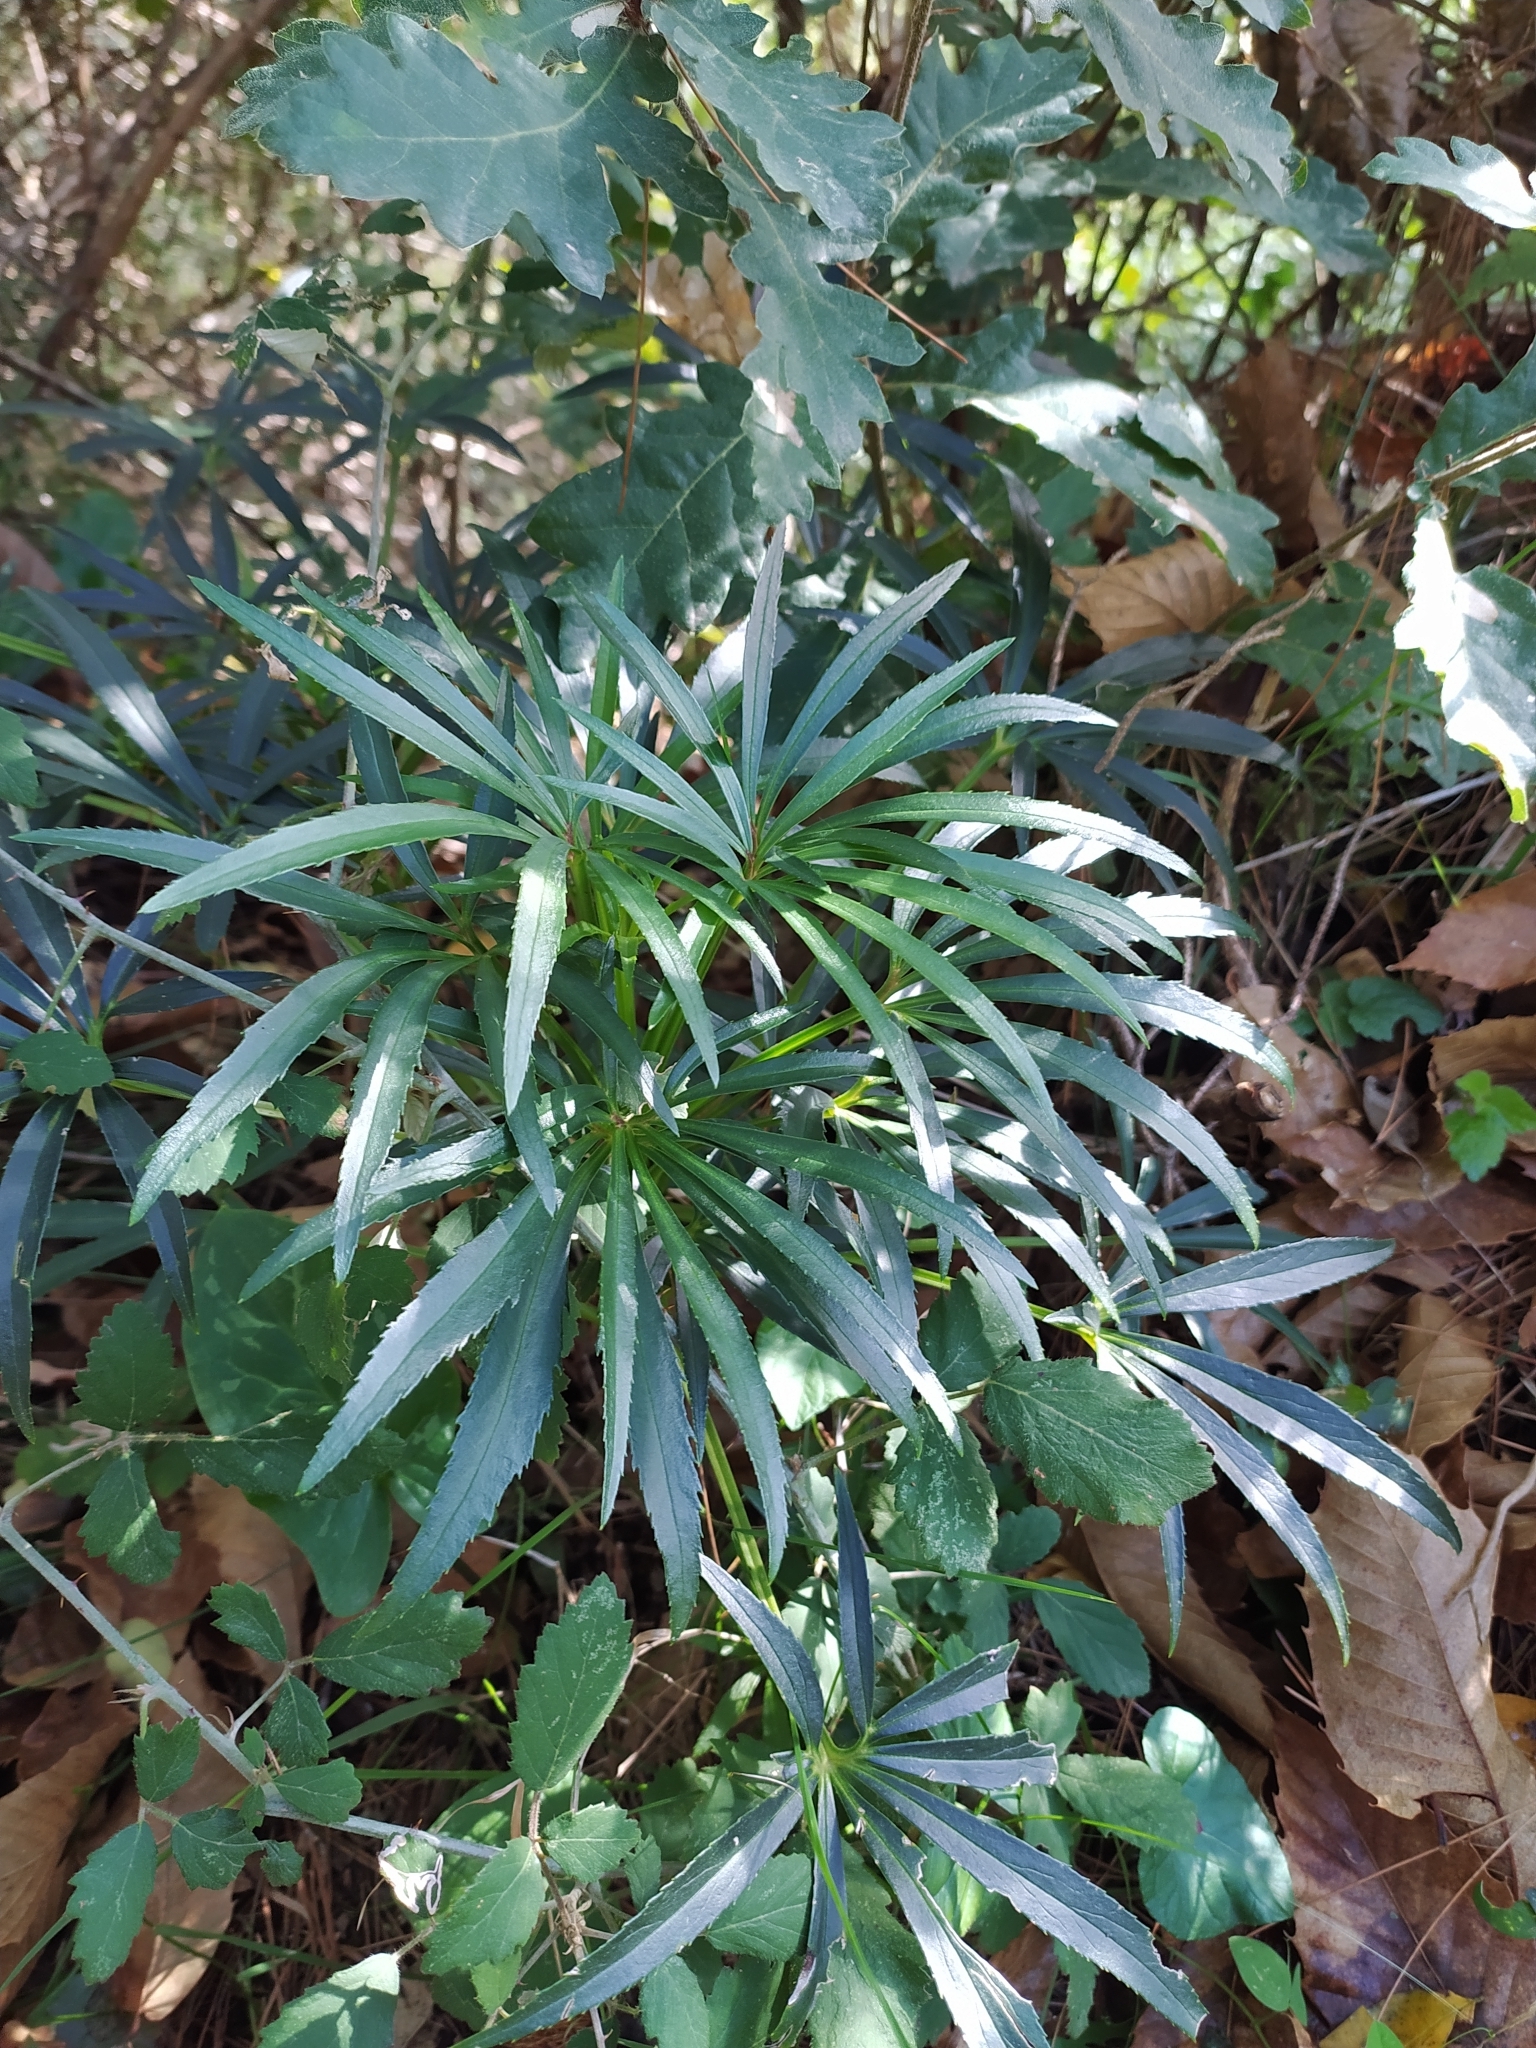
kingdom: Plantae
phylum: Tracheophyta
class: Magnoliopsida
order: Ranunculales
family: Ranunculaceae
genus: Helleborus
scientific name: Helleborus foetidus
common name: Stinking hellebore
